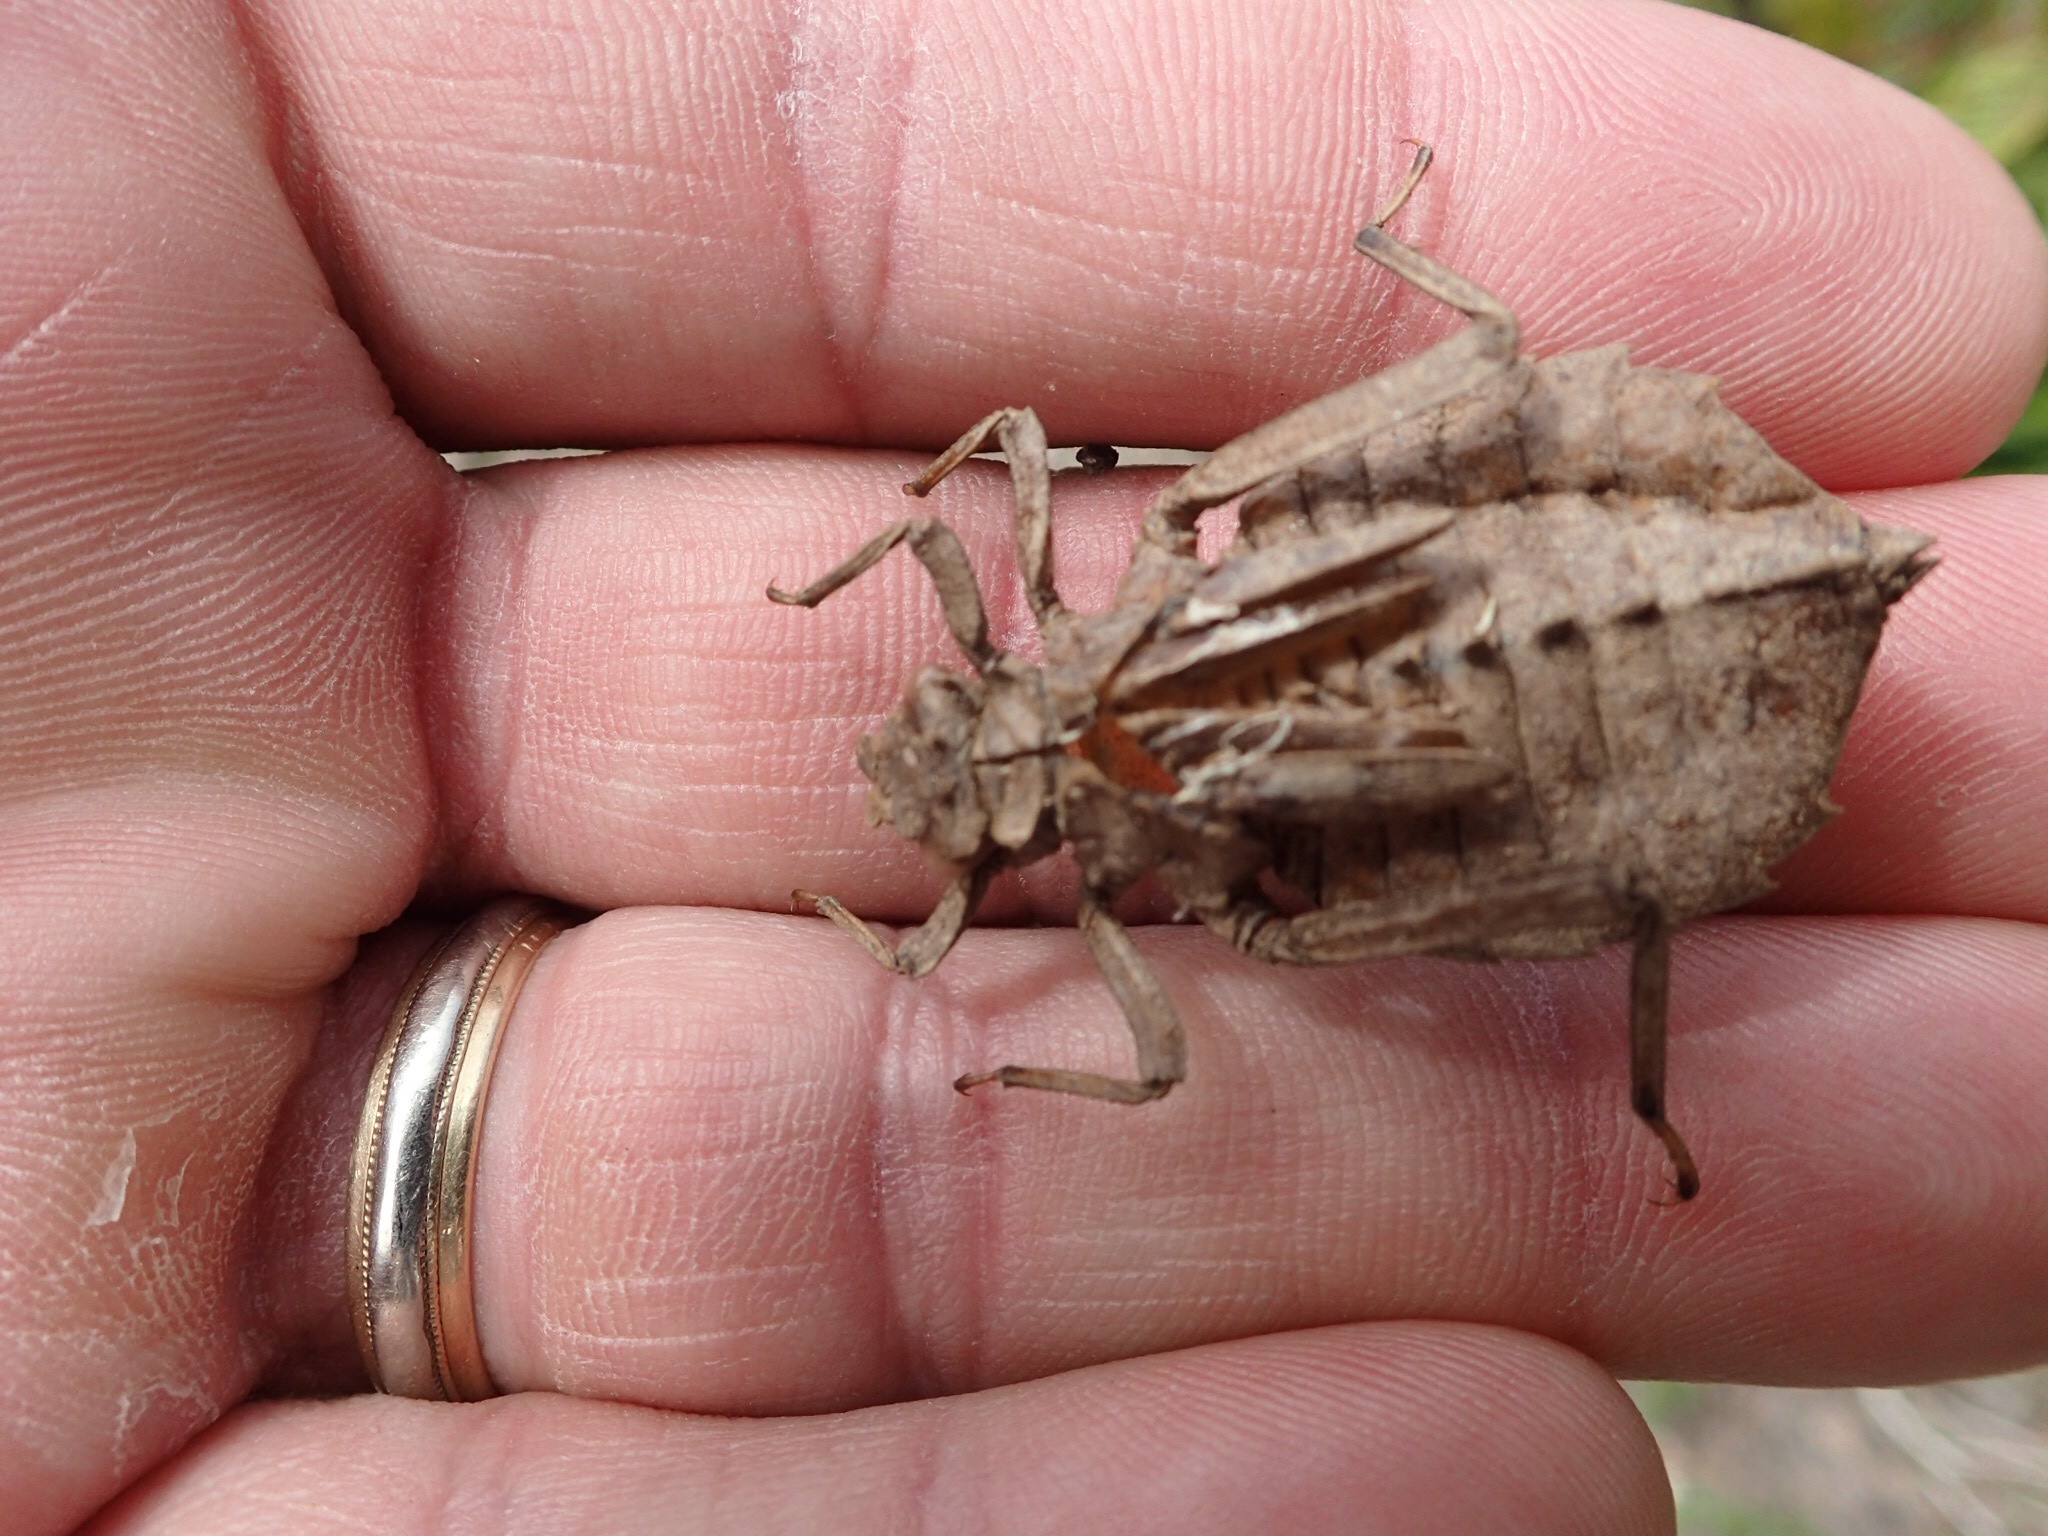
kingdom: Animalia
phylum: Arthropoda
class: Insecta
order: Odonata
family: Gomphidae
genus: Hagenius
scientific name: Hagenius brevistylus
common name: Dragonhunter
